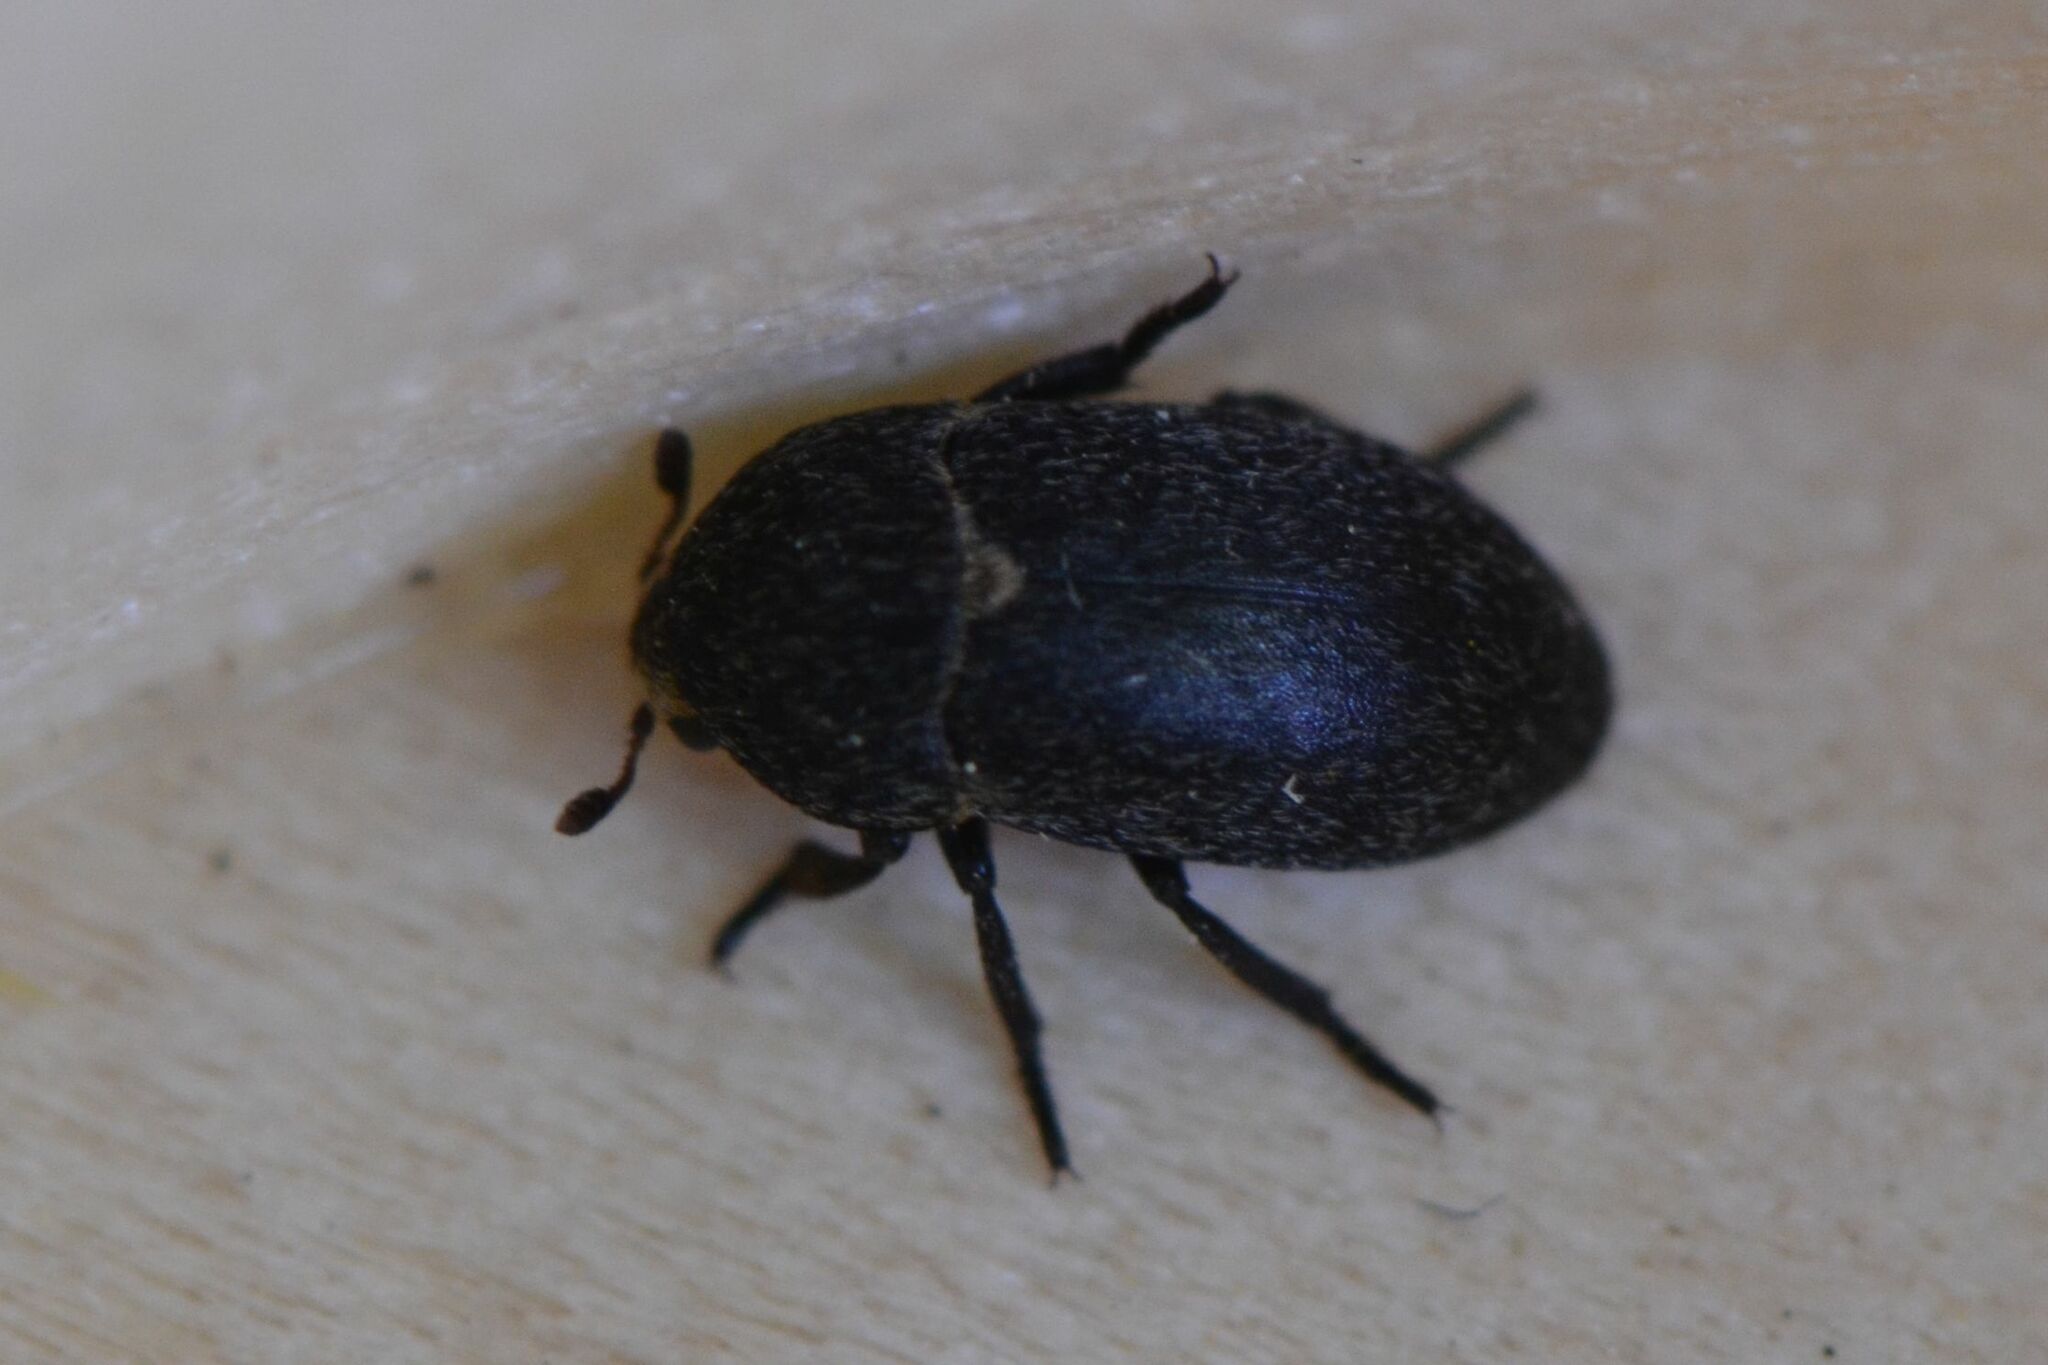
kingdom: Animalia
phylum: Arthropoda
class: Insecta
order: Coleoptera
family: Dermestidae
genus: Dermestes
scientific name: Dermestes laniarius
